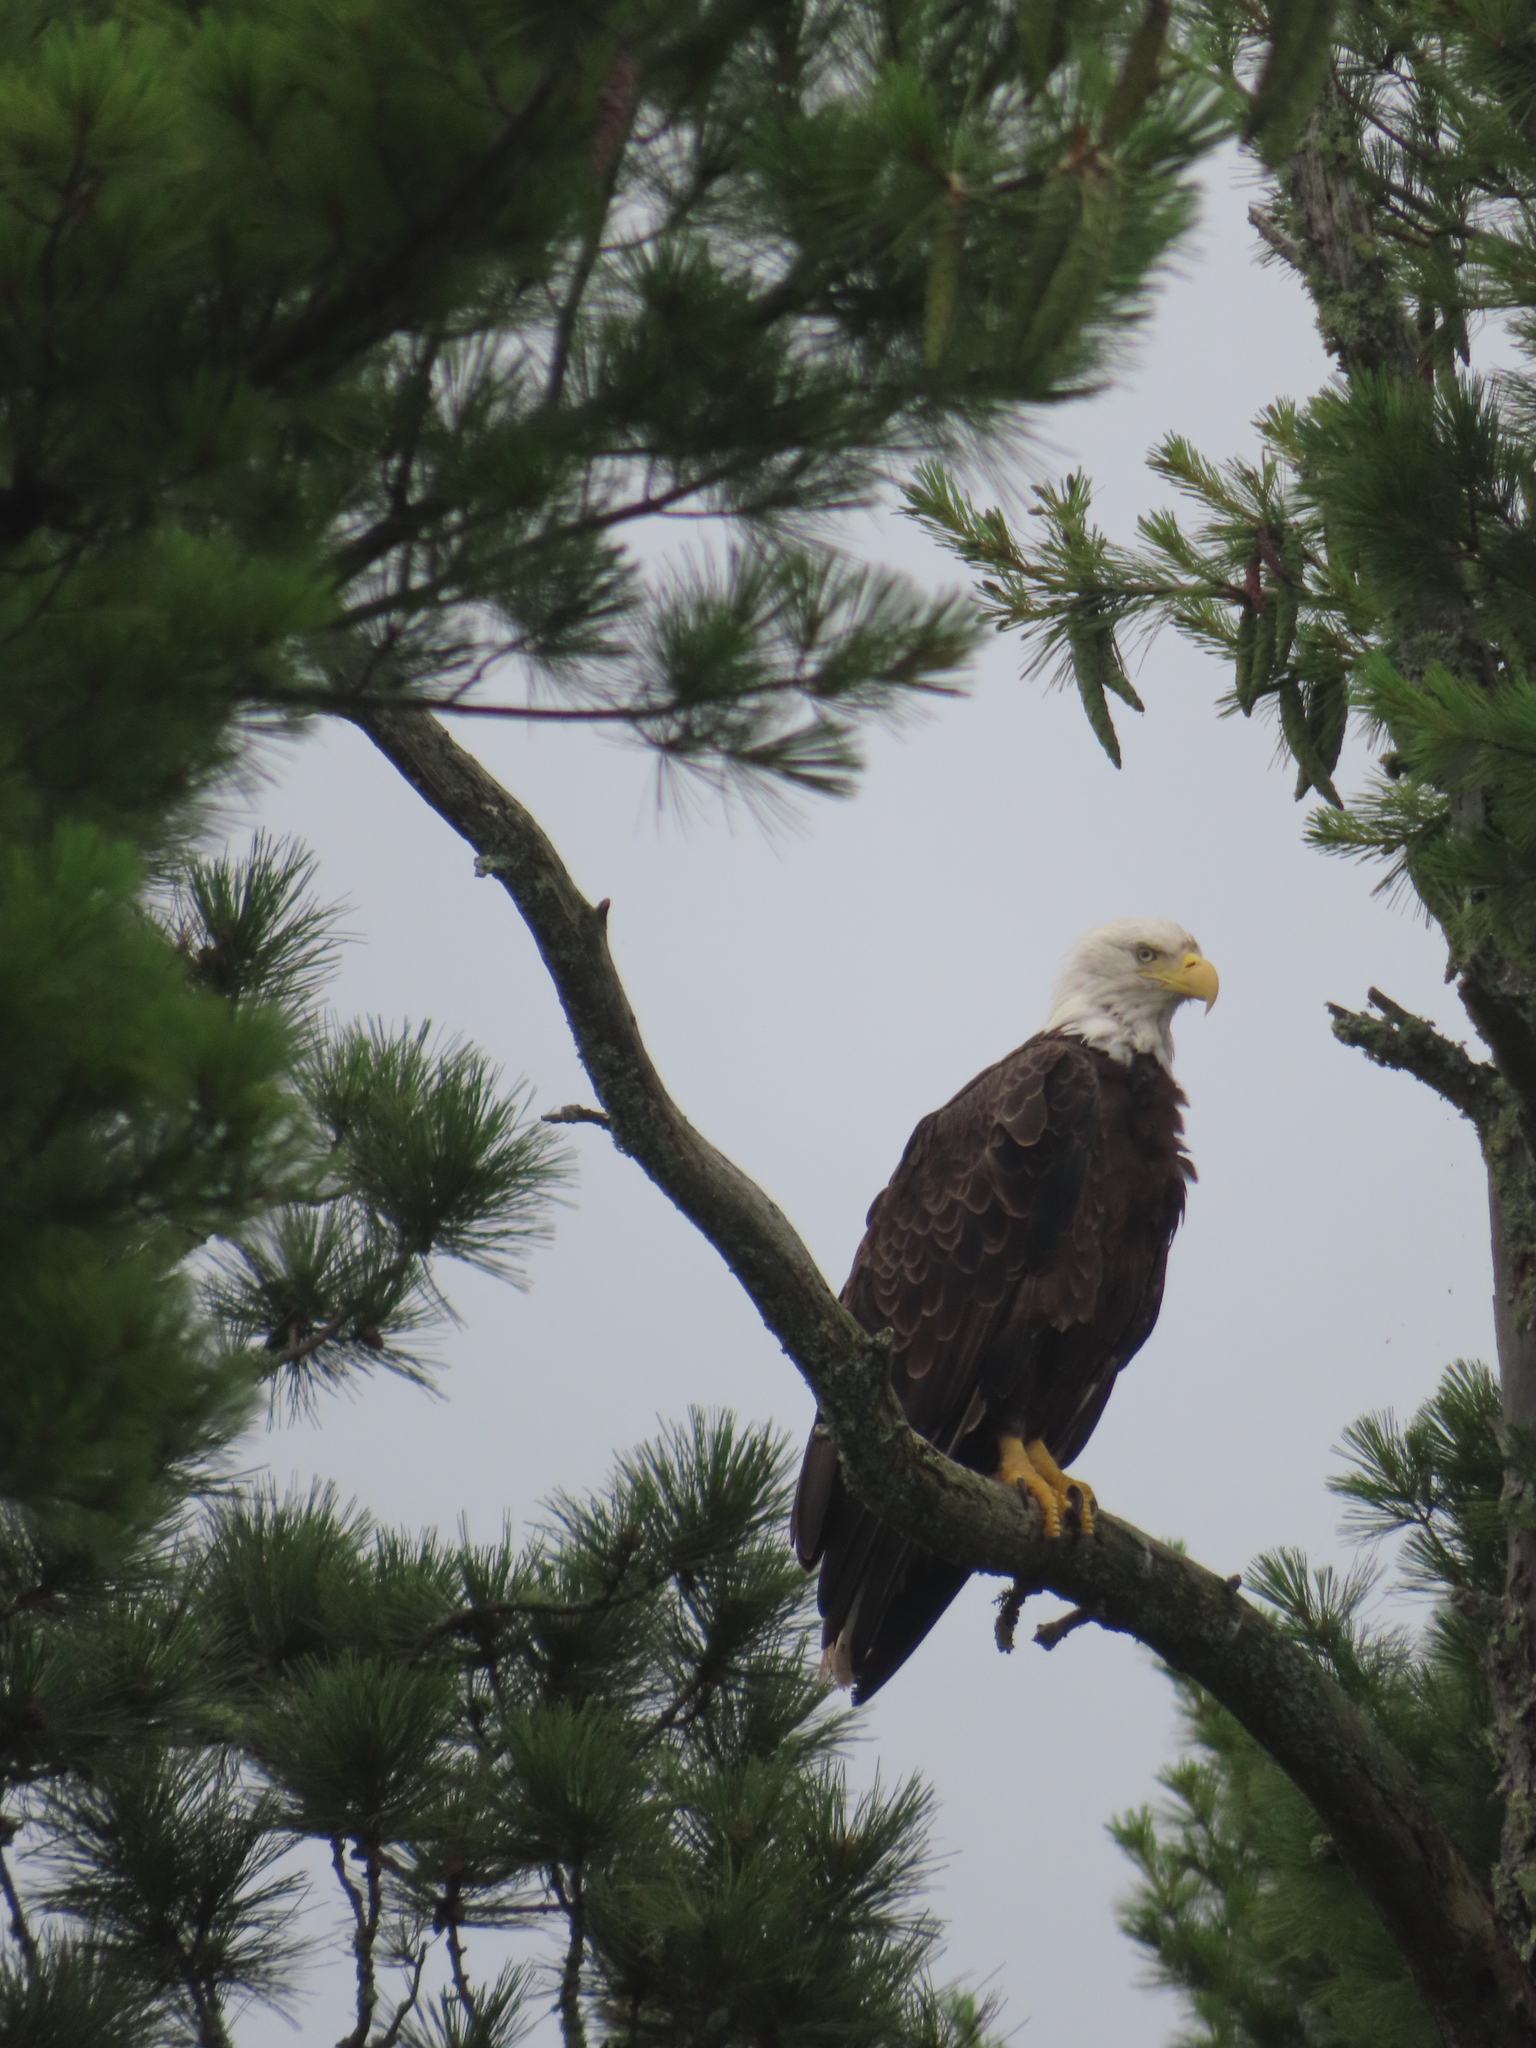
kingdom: Animalia
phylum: Chordata
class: Aves
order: Accipitriformes
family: Accipitridae
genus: Haliaeetus
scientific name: Haliaeetus leucocephalus
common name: Bald eagle
